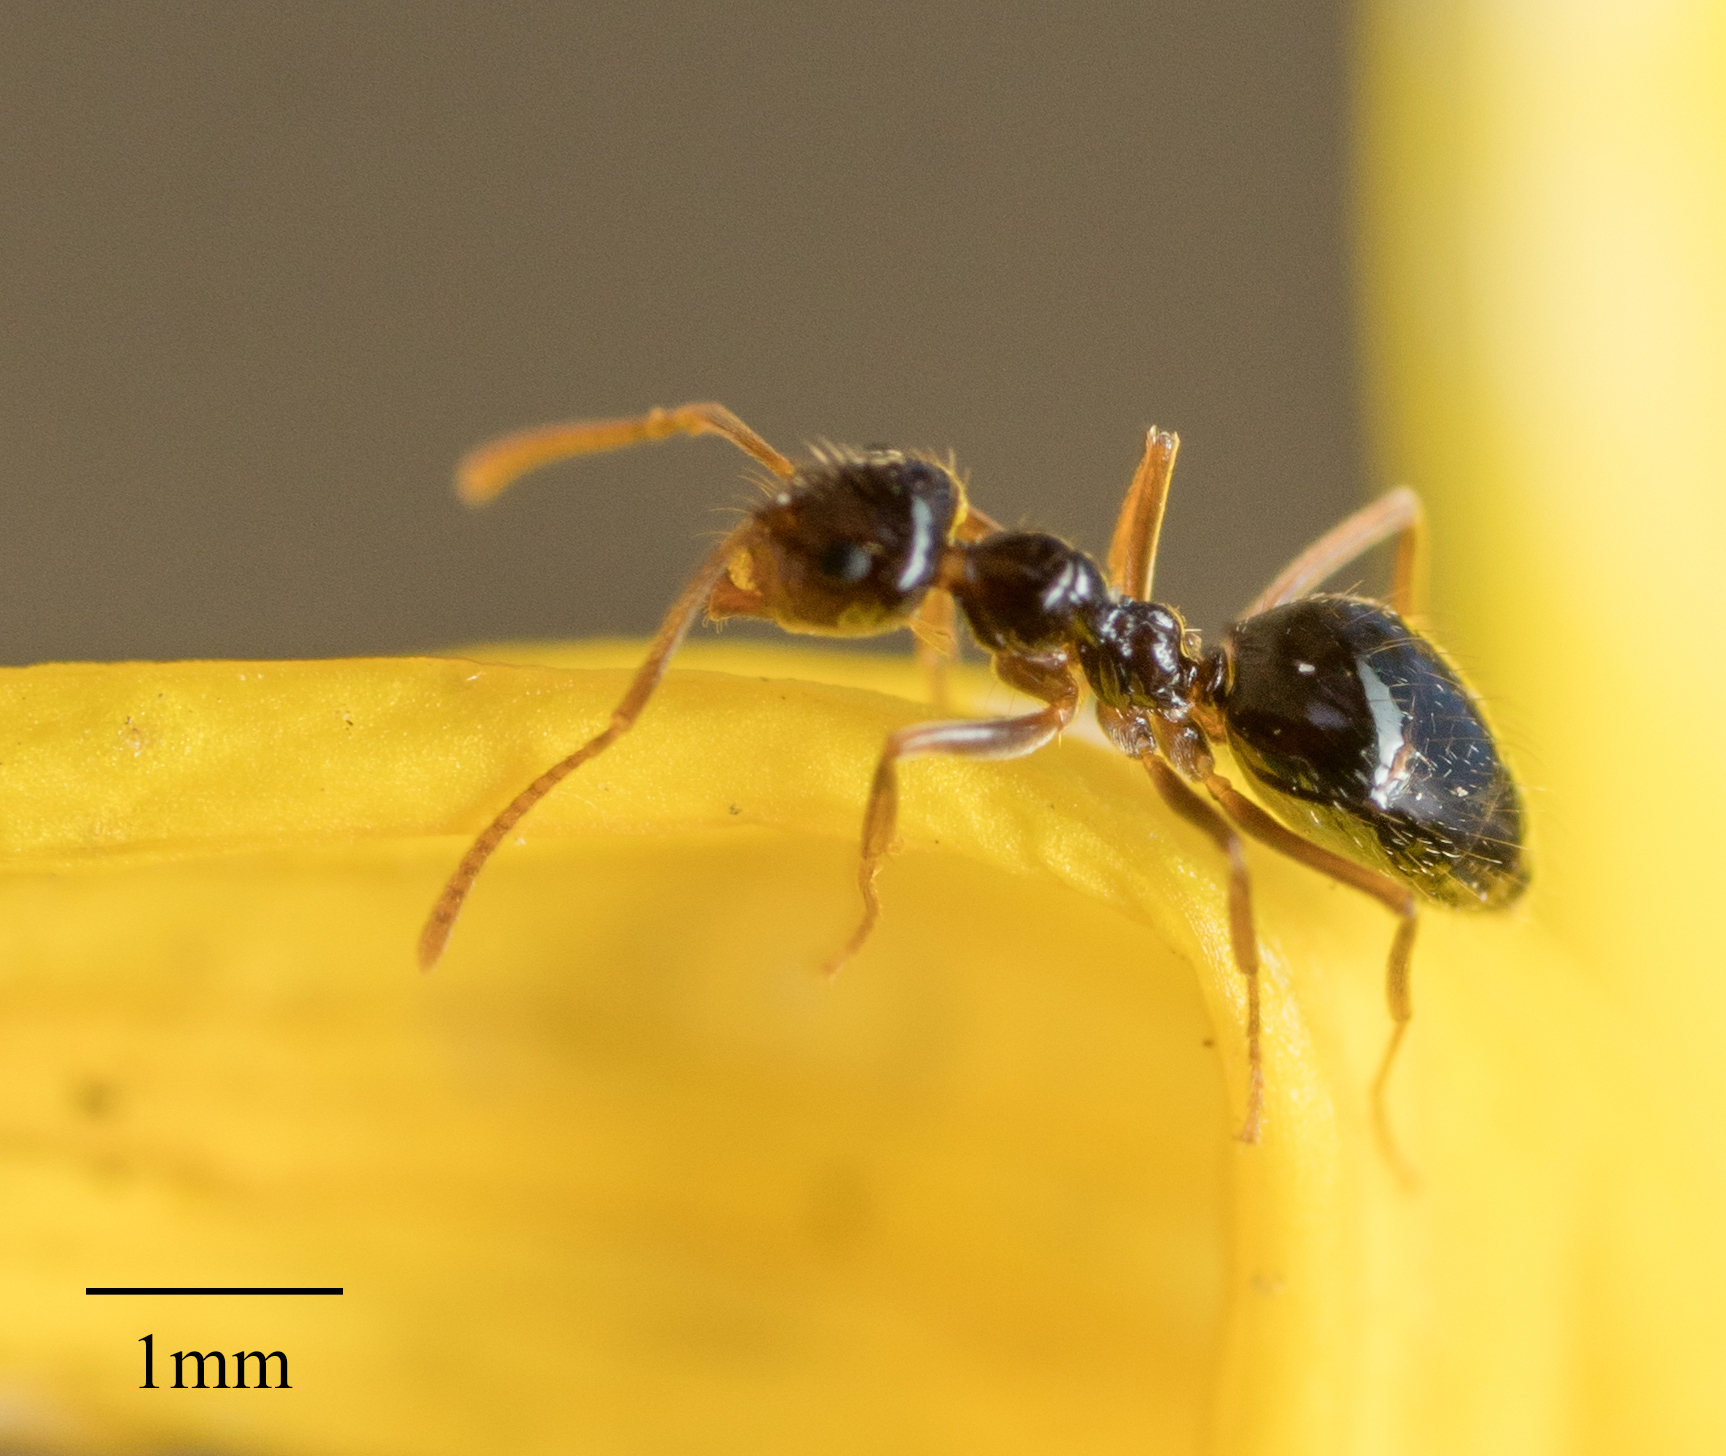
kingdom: Animalia
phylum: Arthropoda
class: Insecta
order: Hymenoptera
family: Formicidae
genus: Prenolepis
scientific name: Prenolepis imparis
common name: Small honey ant
